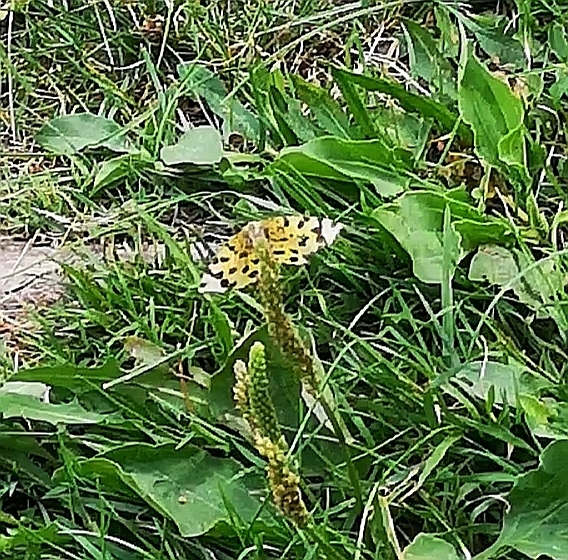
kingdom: Animalia
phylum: Arthropoda
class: Insecta
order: Lepidoptera
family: Geometridae
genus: Pseudopanthera
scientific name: Pseudopanthera macularia
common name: Speckled yellow
